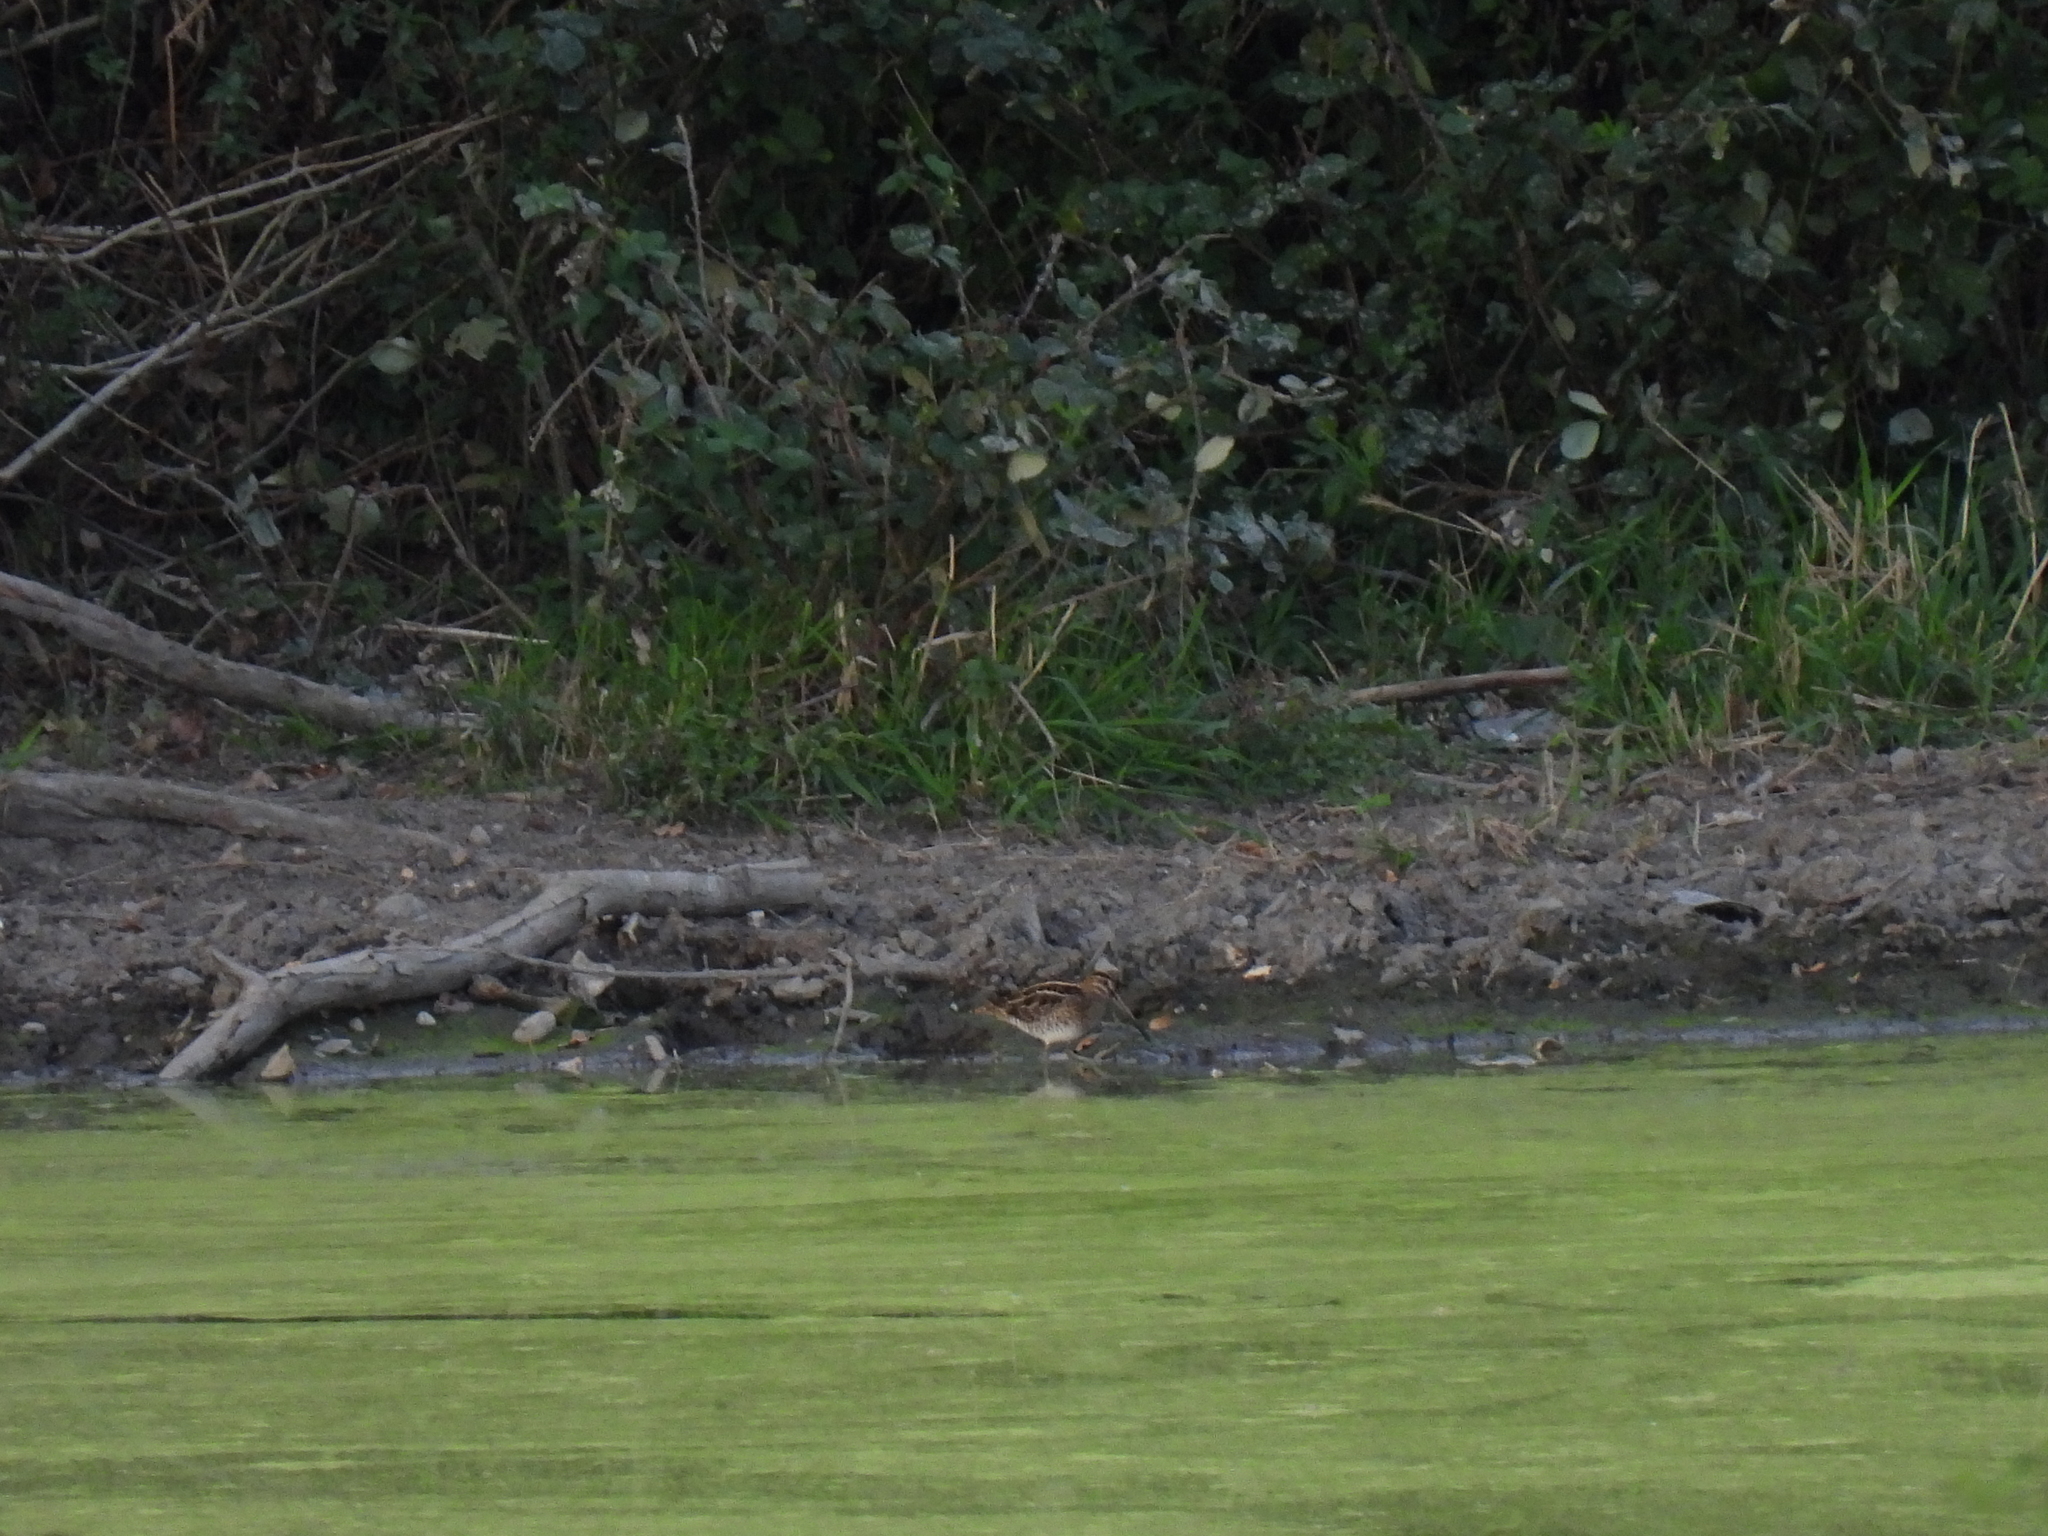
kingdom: Animalia
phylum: Chordata
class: Aves
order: Charadriiformes
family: Scolopacidae
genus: Gallinago
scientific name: Gallinago gallinago
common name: Common snipe
